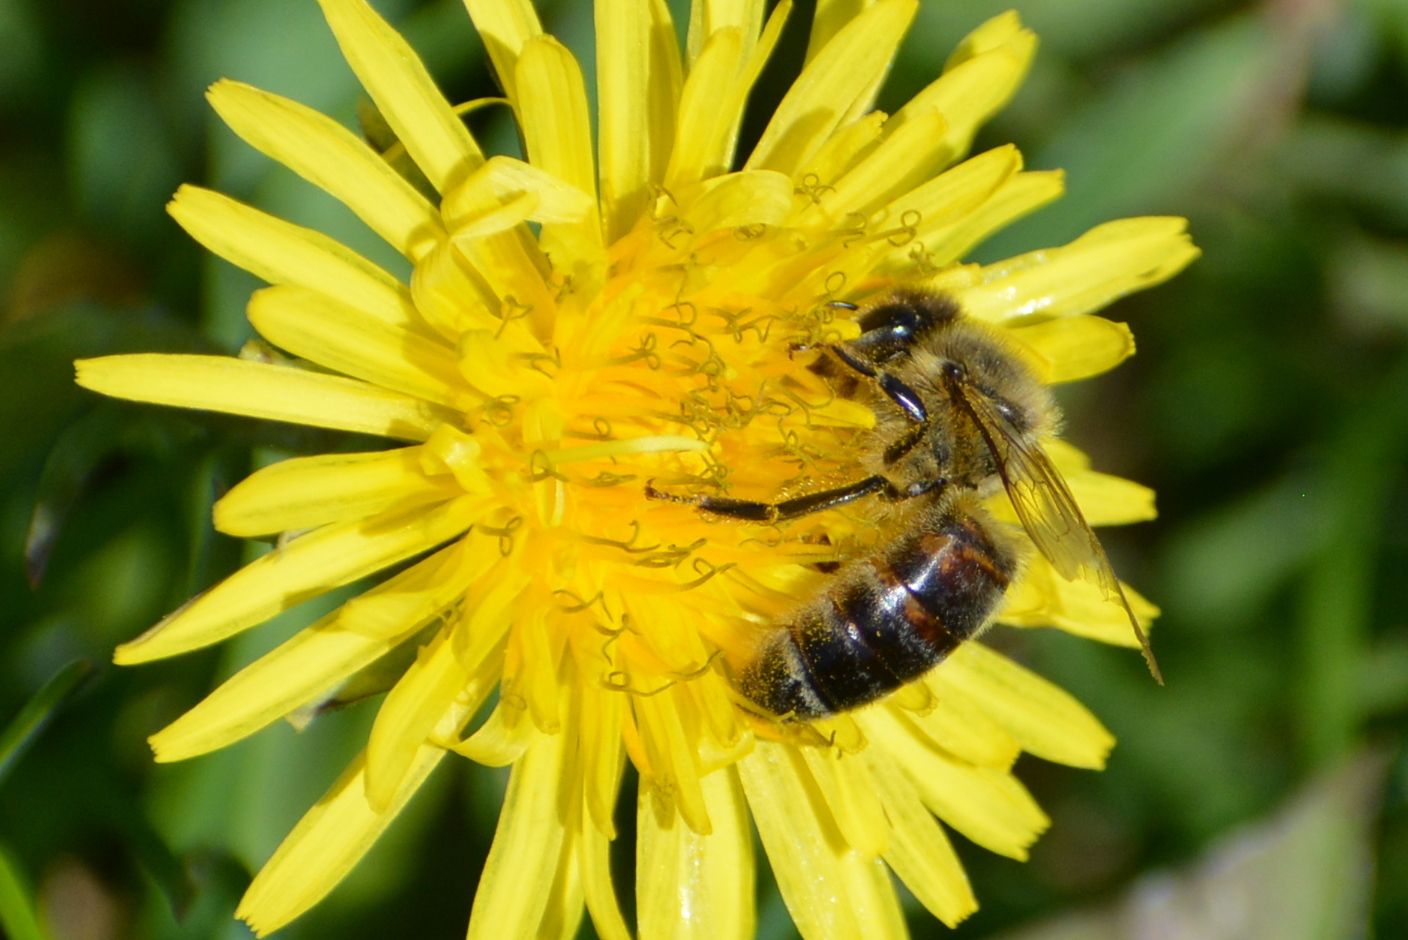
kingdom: Animalia
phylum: Arthropoda
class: Insecta
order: Hymenoptera
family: Apidae
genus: Apis
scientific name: Apis mellifera
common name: Honey bee
